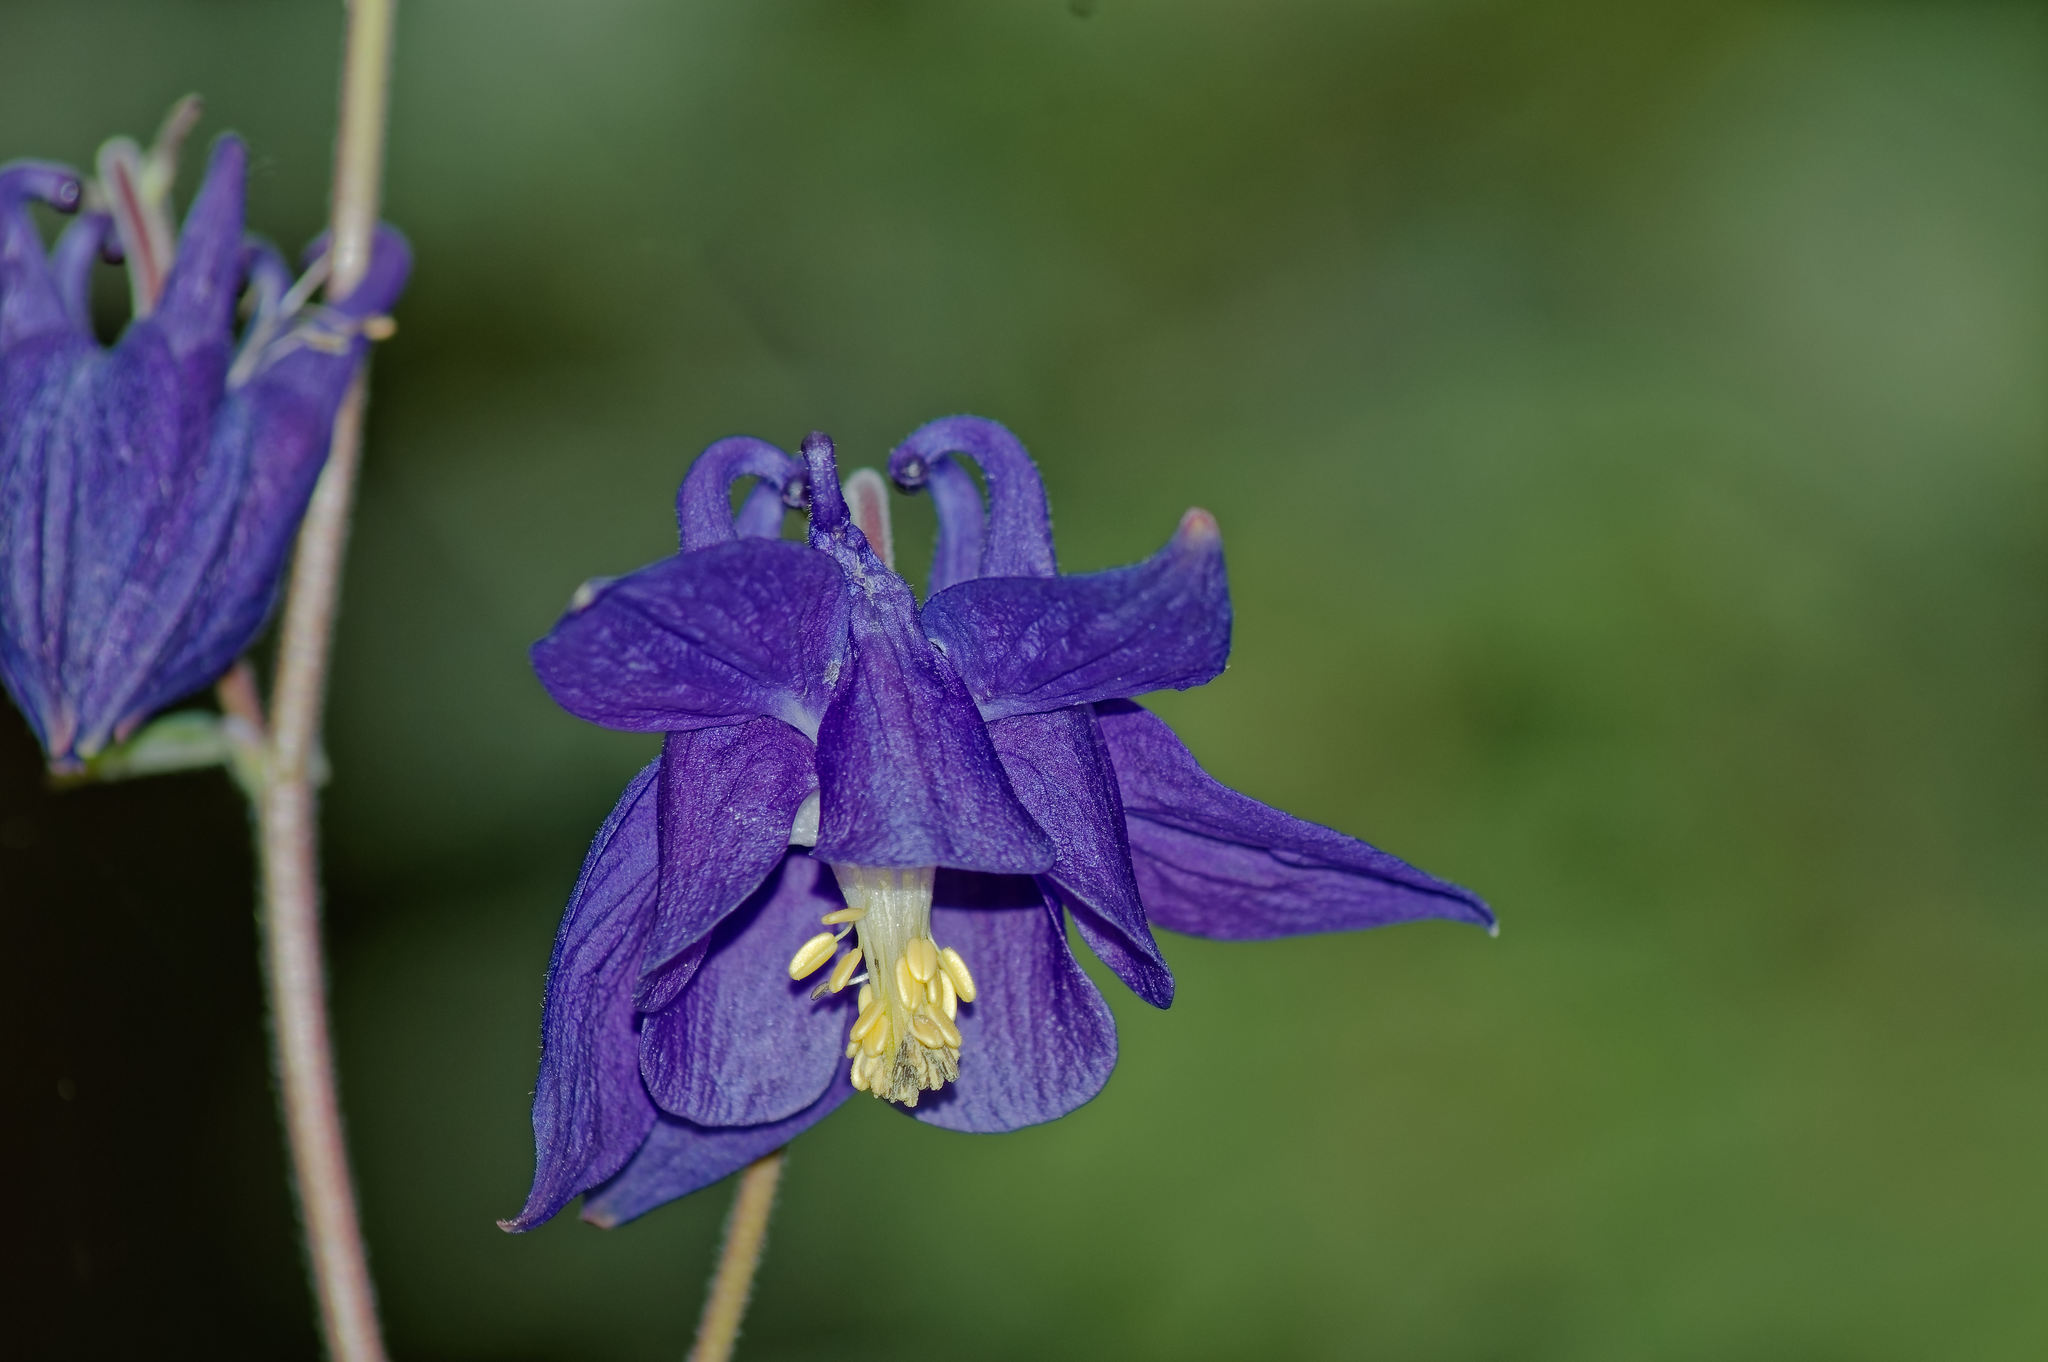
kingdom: Plantae
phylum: Tracheophyta
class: Magnoliopsida
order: Ranunculales
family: Ranunculaceae
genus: Aquilegia
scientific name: Aquilegia vulgaris
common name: Columbine
